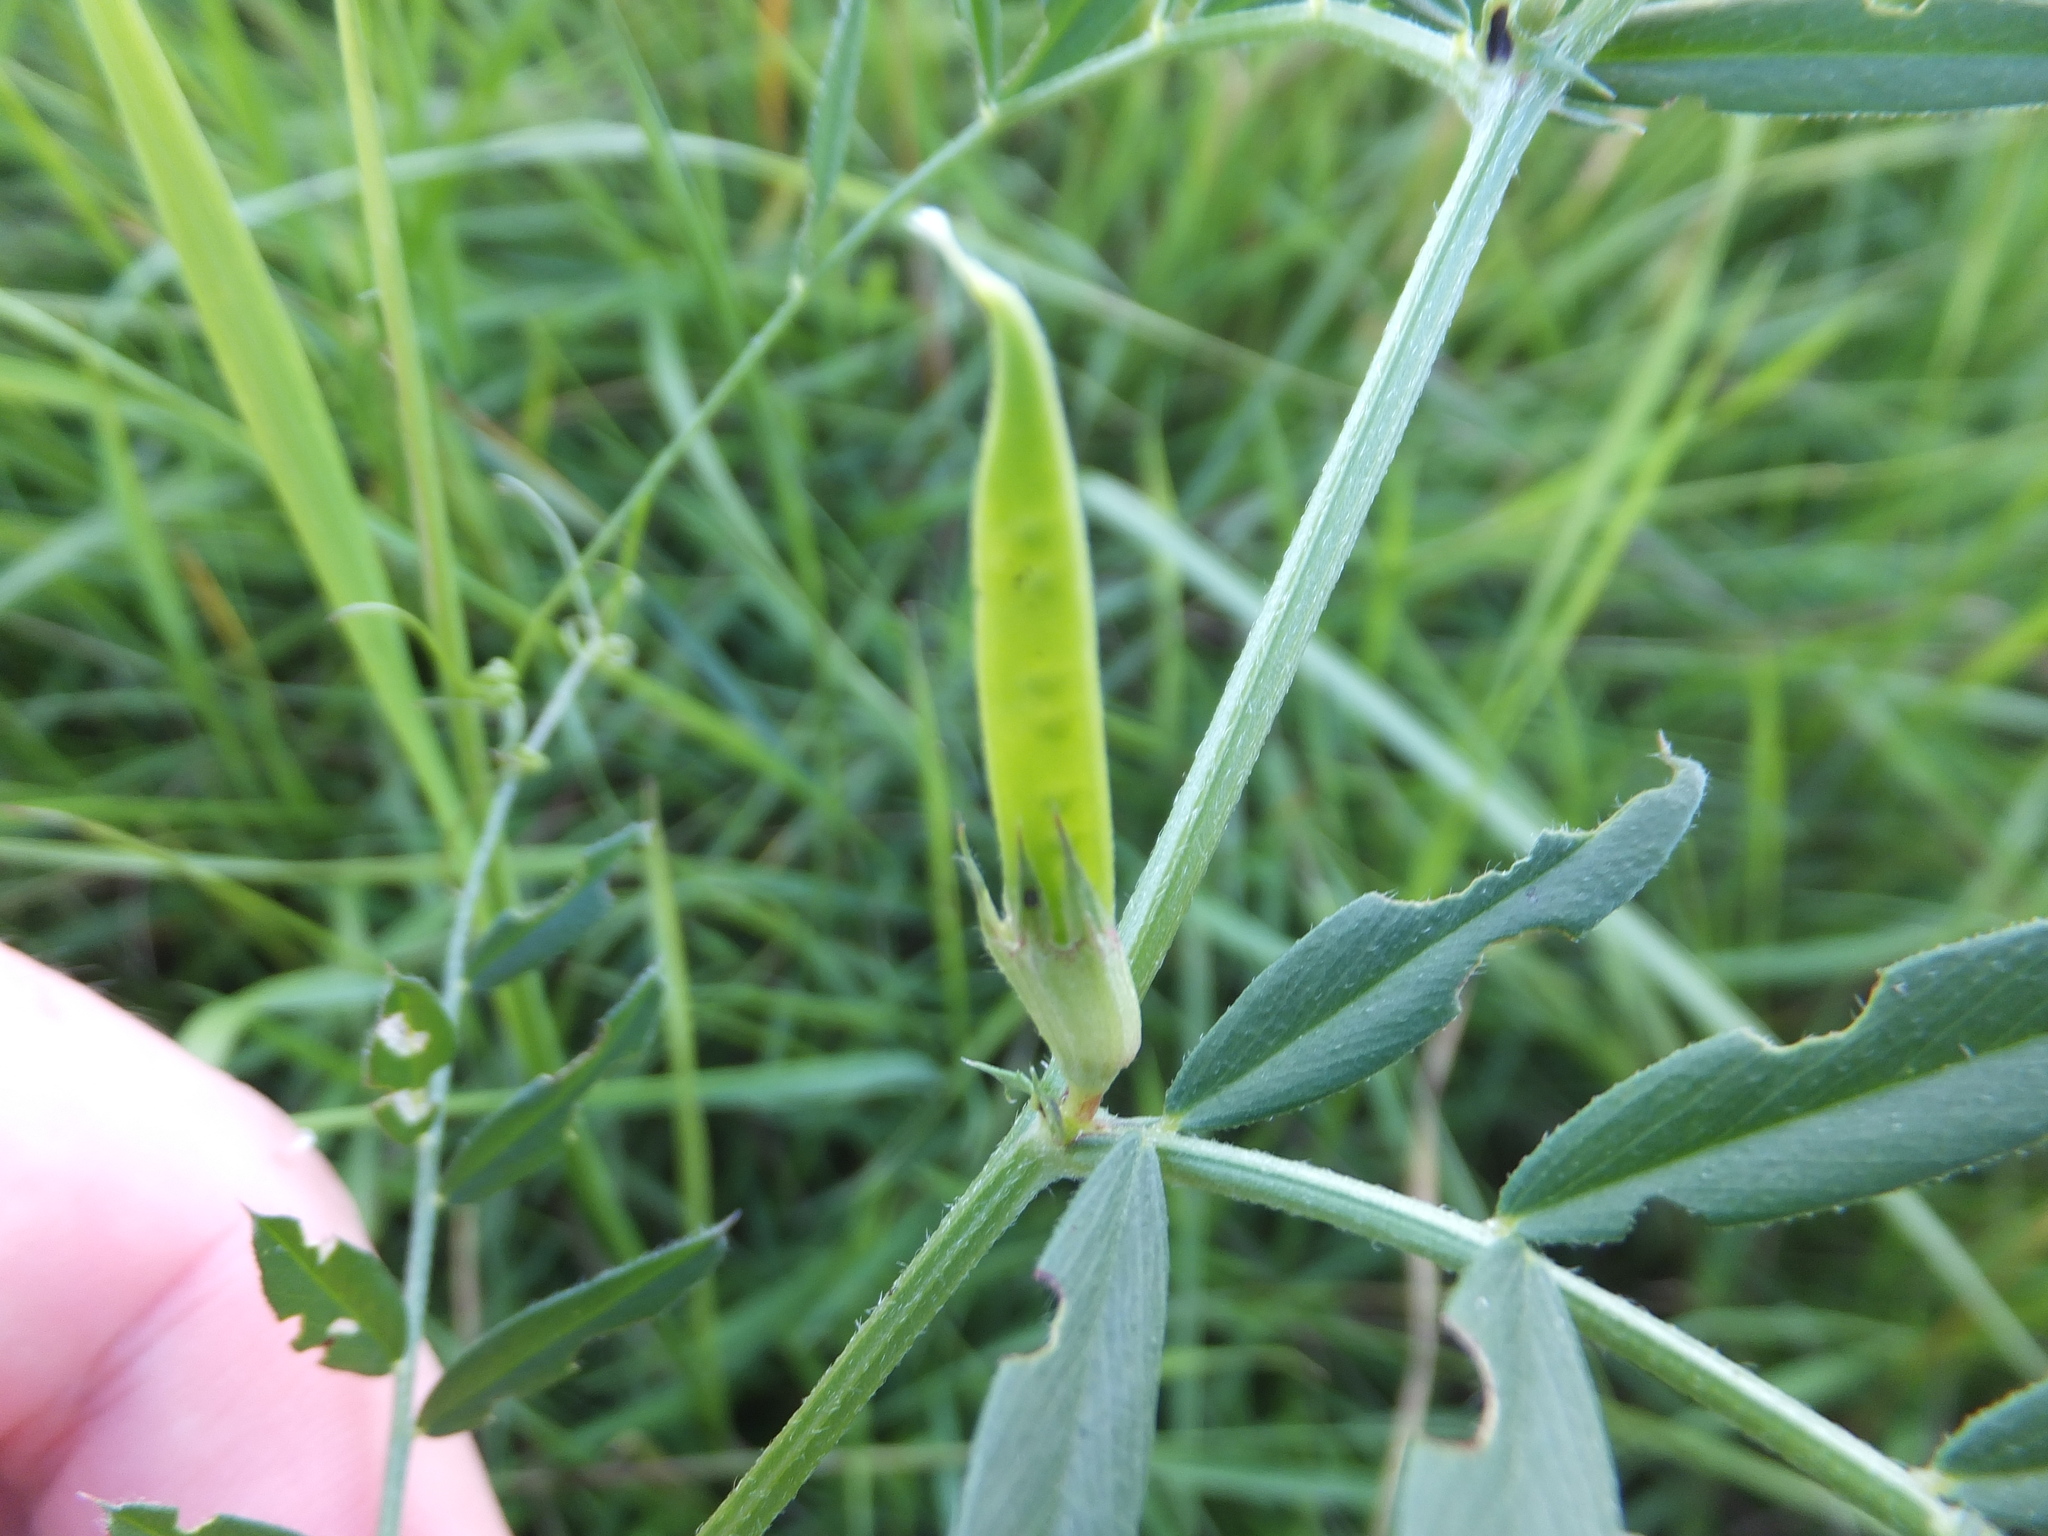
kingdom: Plantae
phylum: Tracheophyta
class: Magnoliopsida
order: Fabales
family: Fabaceae
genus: Vicia
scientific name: Vicia sativa
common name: Garden vetch
